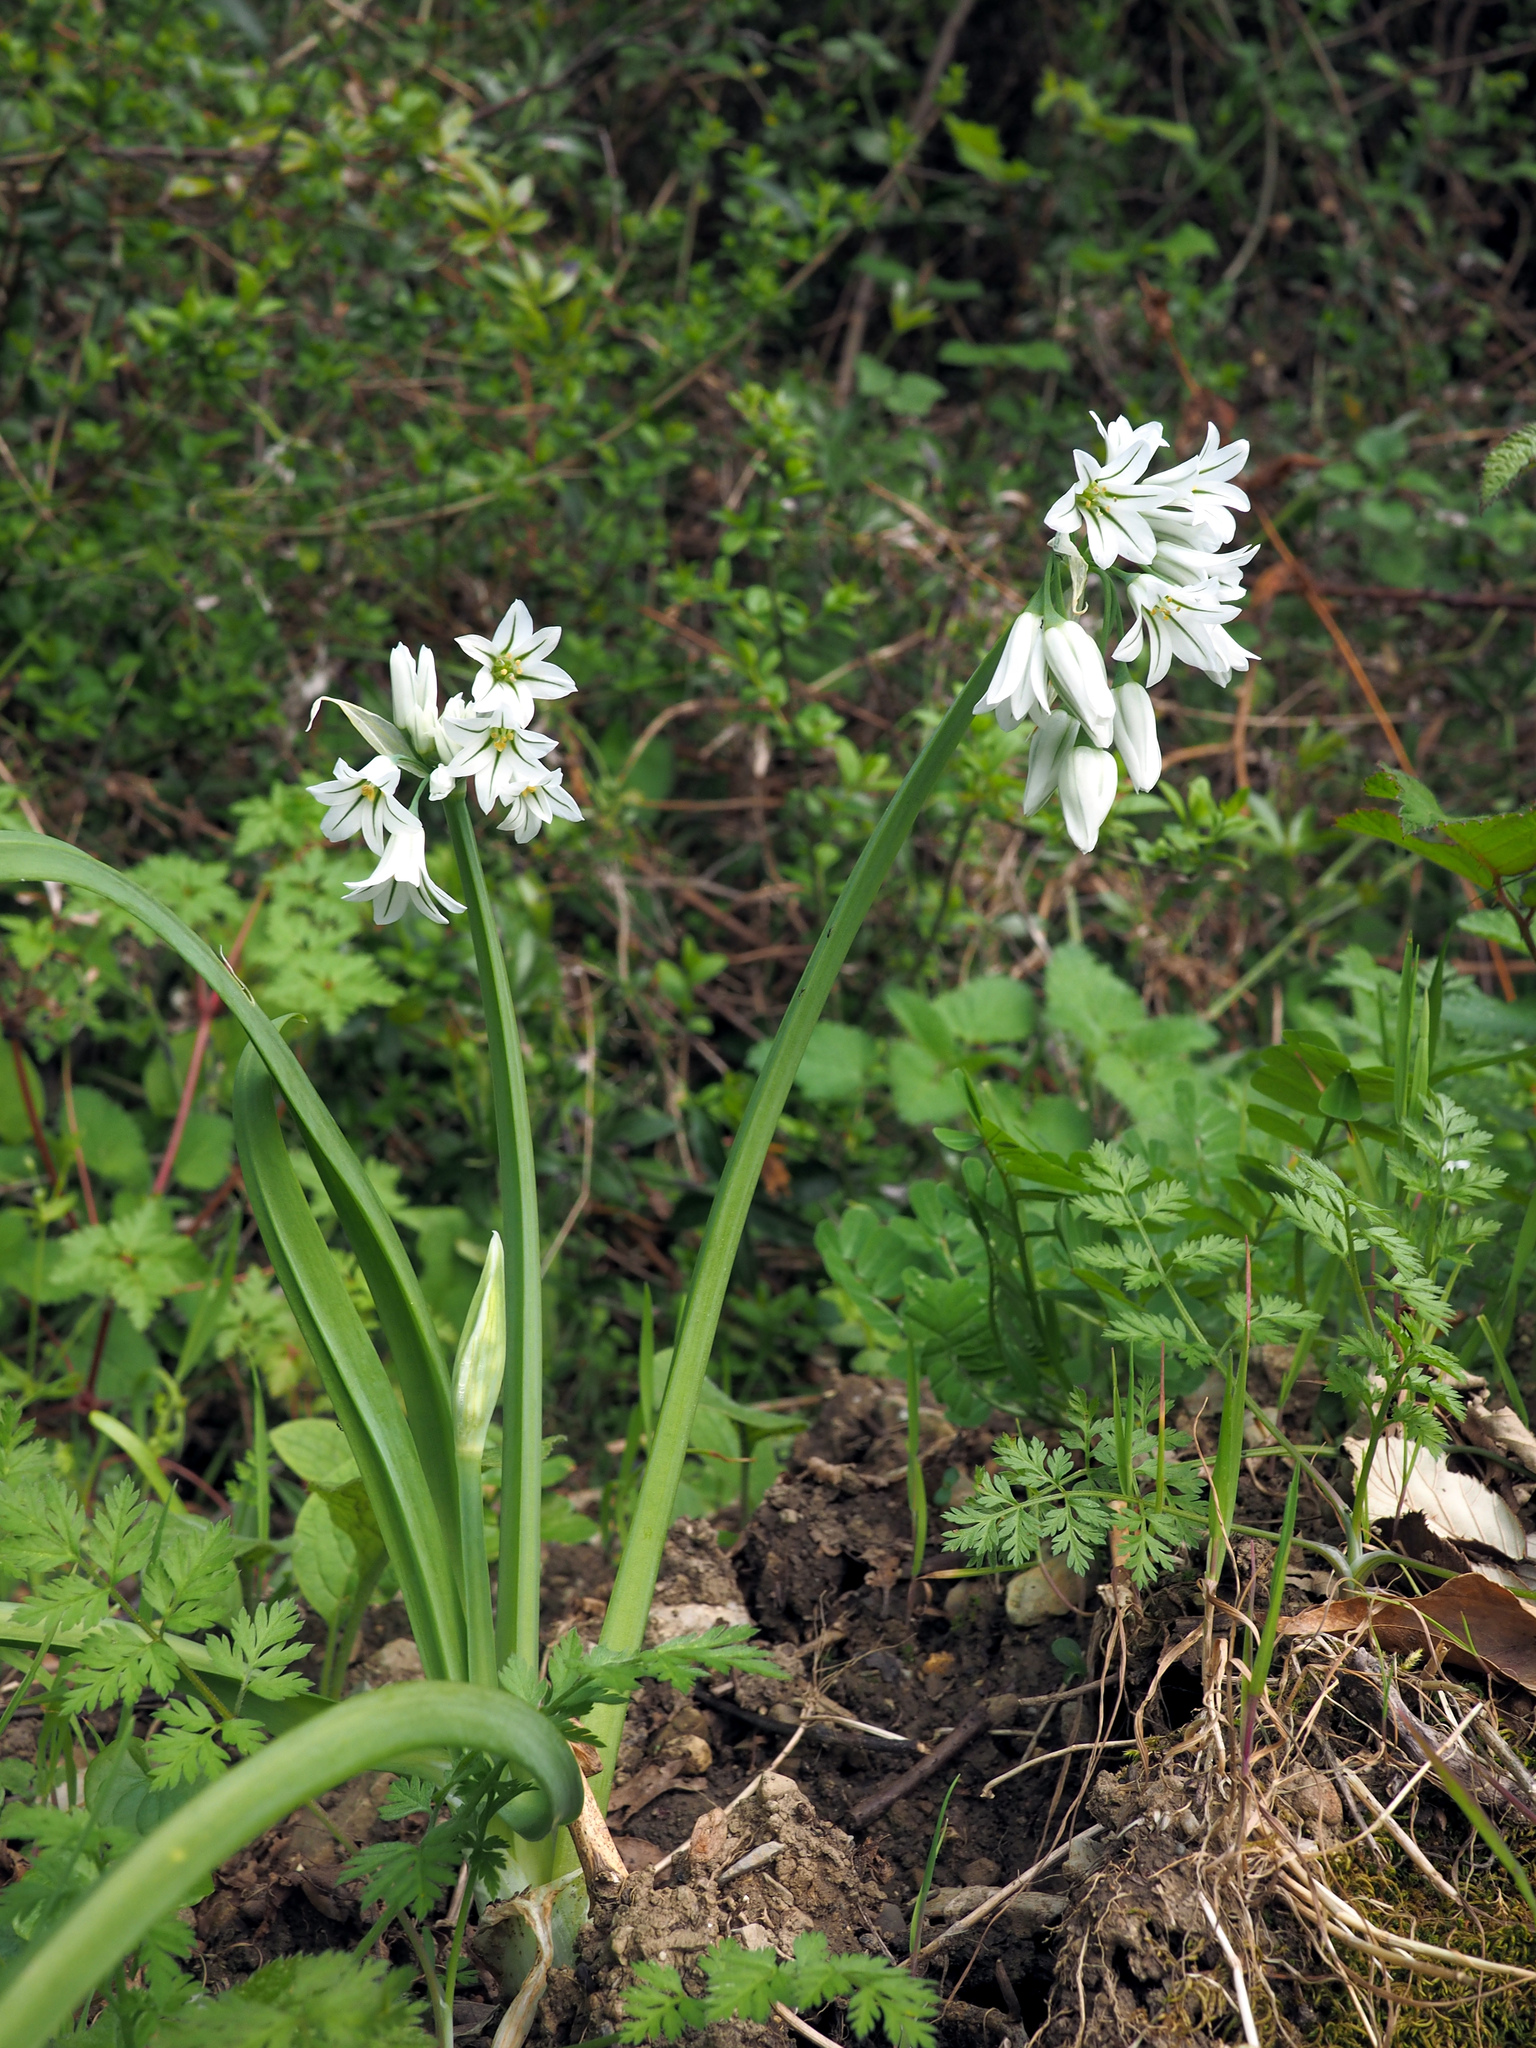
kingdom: Plantae
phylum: Tracheophyta
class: Liliopsida
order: Asparagales
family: Amaryllidaceae
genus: Allium
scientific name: Allium triquetrum
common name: Three-cornered garlic
